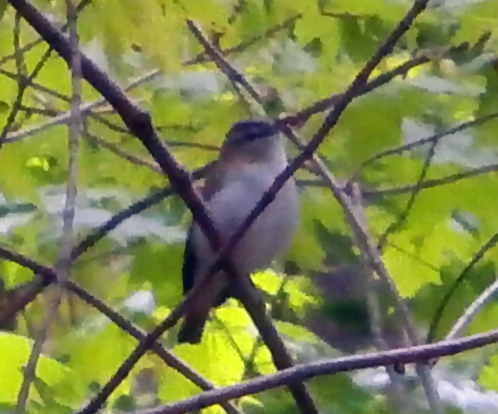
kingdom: Animalia
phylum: Chordata
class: Aves
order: Passeriformes
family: Vireonidae
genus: Vireo
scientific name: Vireo olivaceus
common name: Red-eyed vireo
